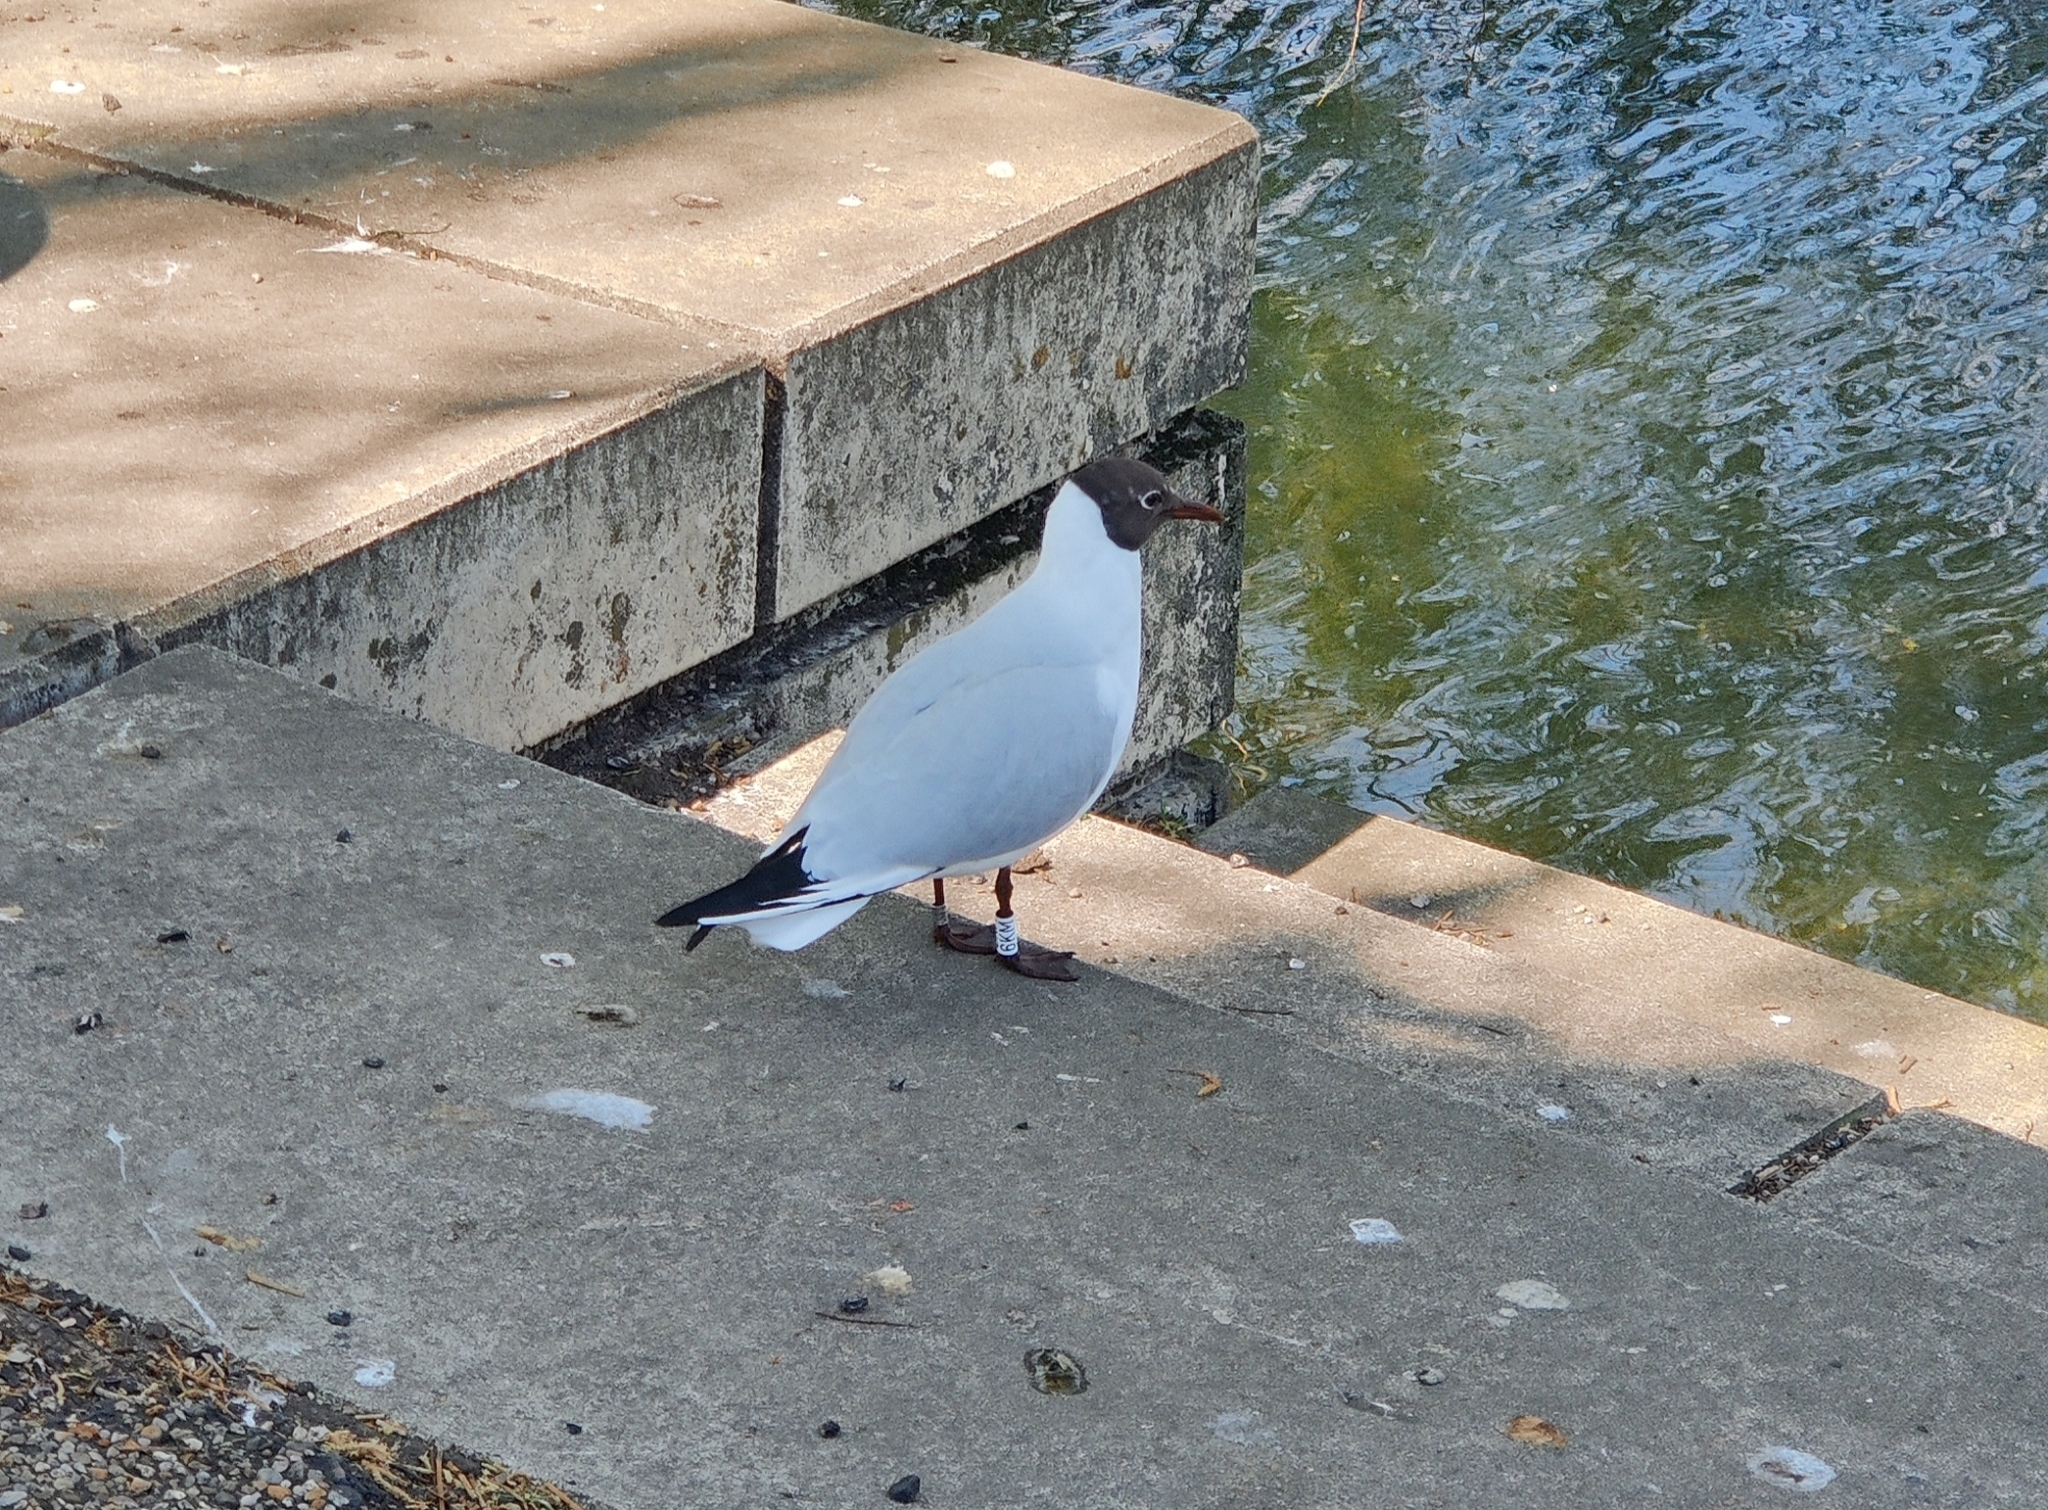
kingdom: Animalia
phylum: Chordata
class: Aves
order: Charadriiformes
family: Laridae
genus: Chroicocephalus
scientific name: Chroicocephalus ridibundus
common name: Black-headed gull
